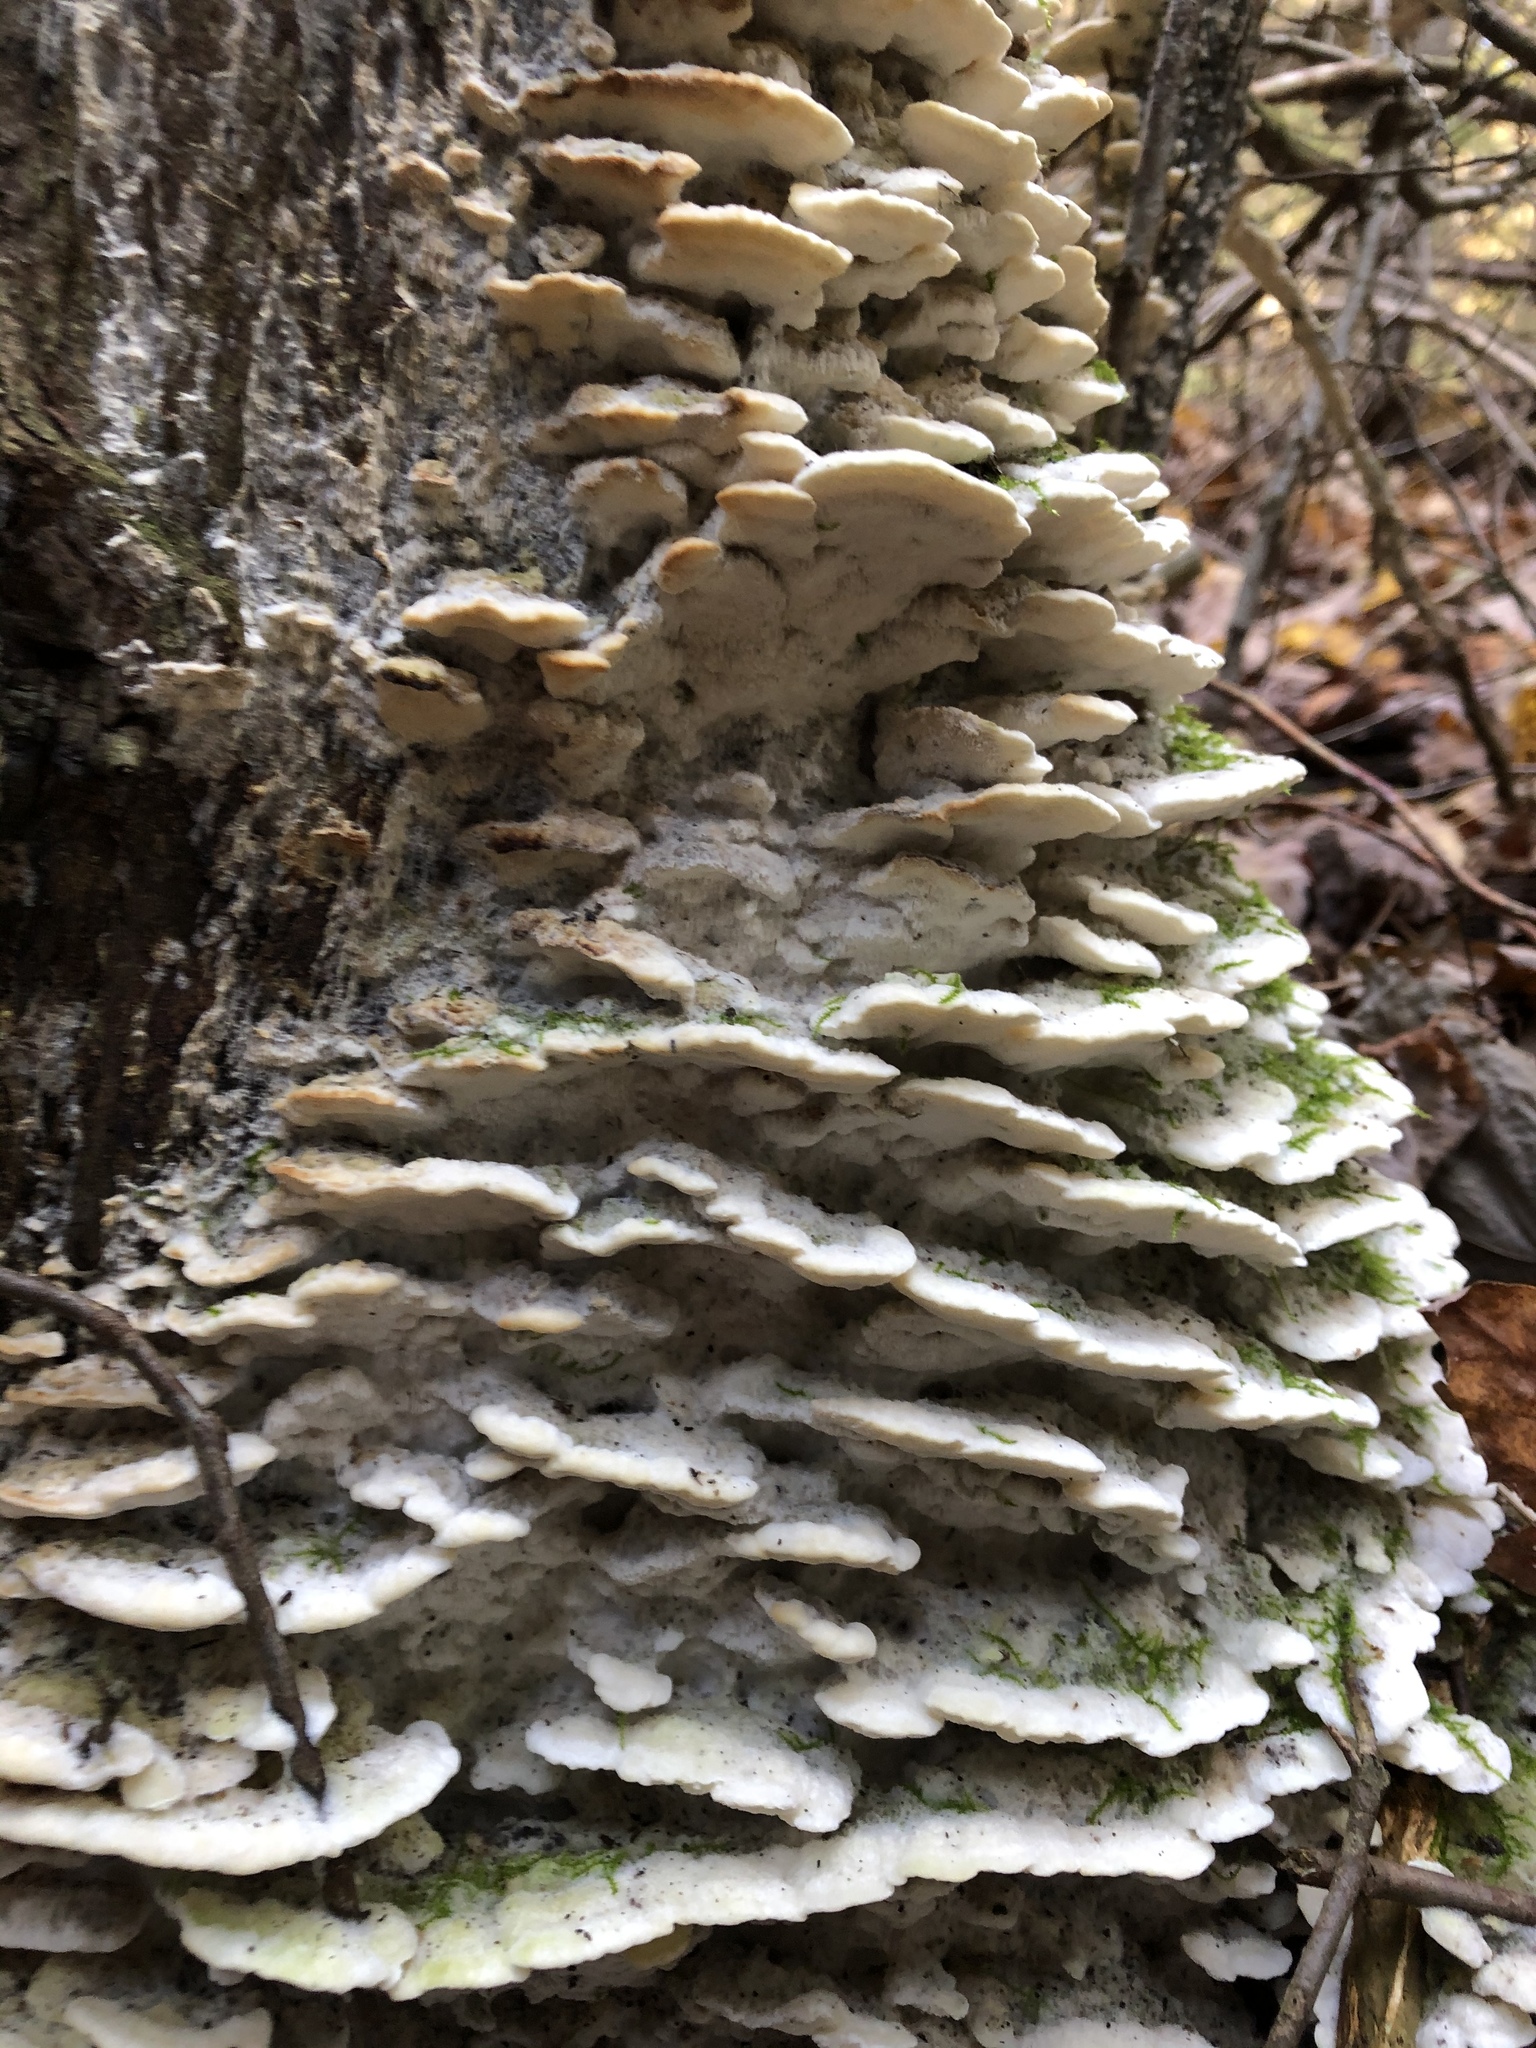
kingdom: Fungi
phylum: Basidiomycota
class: Agaricomycetes
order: Hymenochaetales
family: Oxyporaceae
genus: Oxyporus
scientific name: Oxyporus populinus
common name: Poplar bracket
